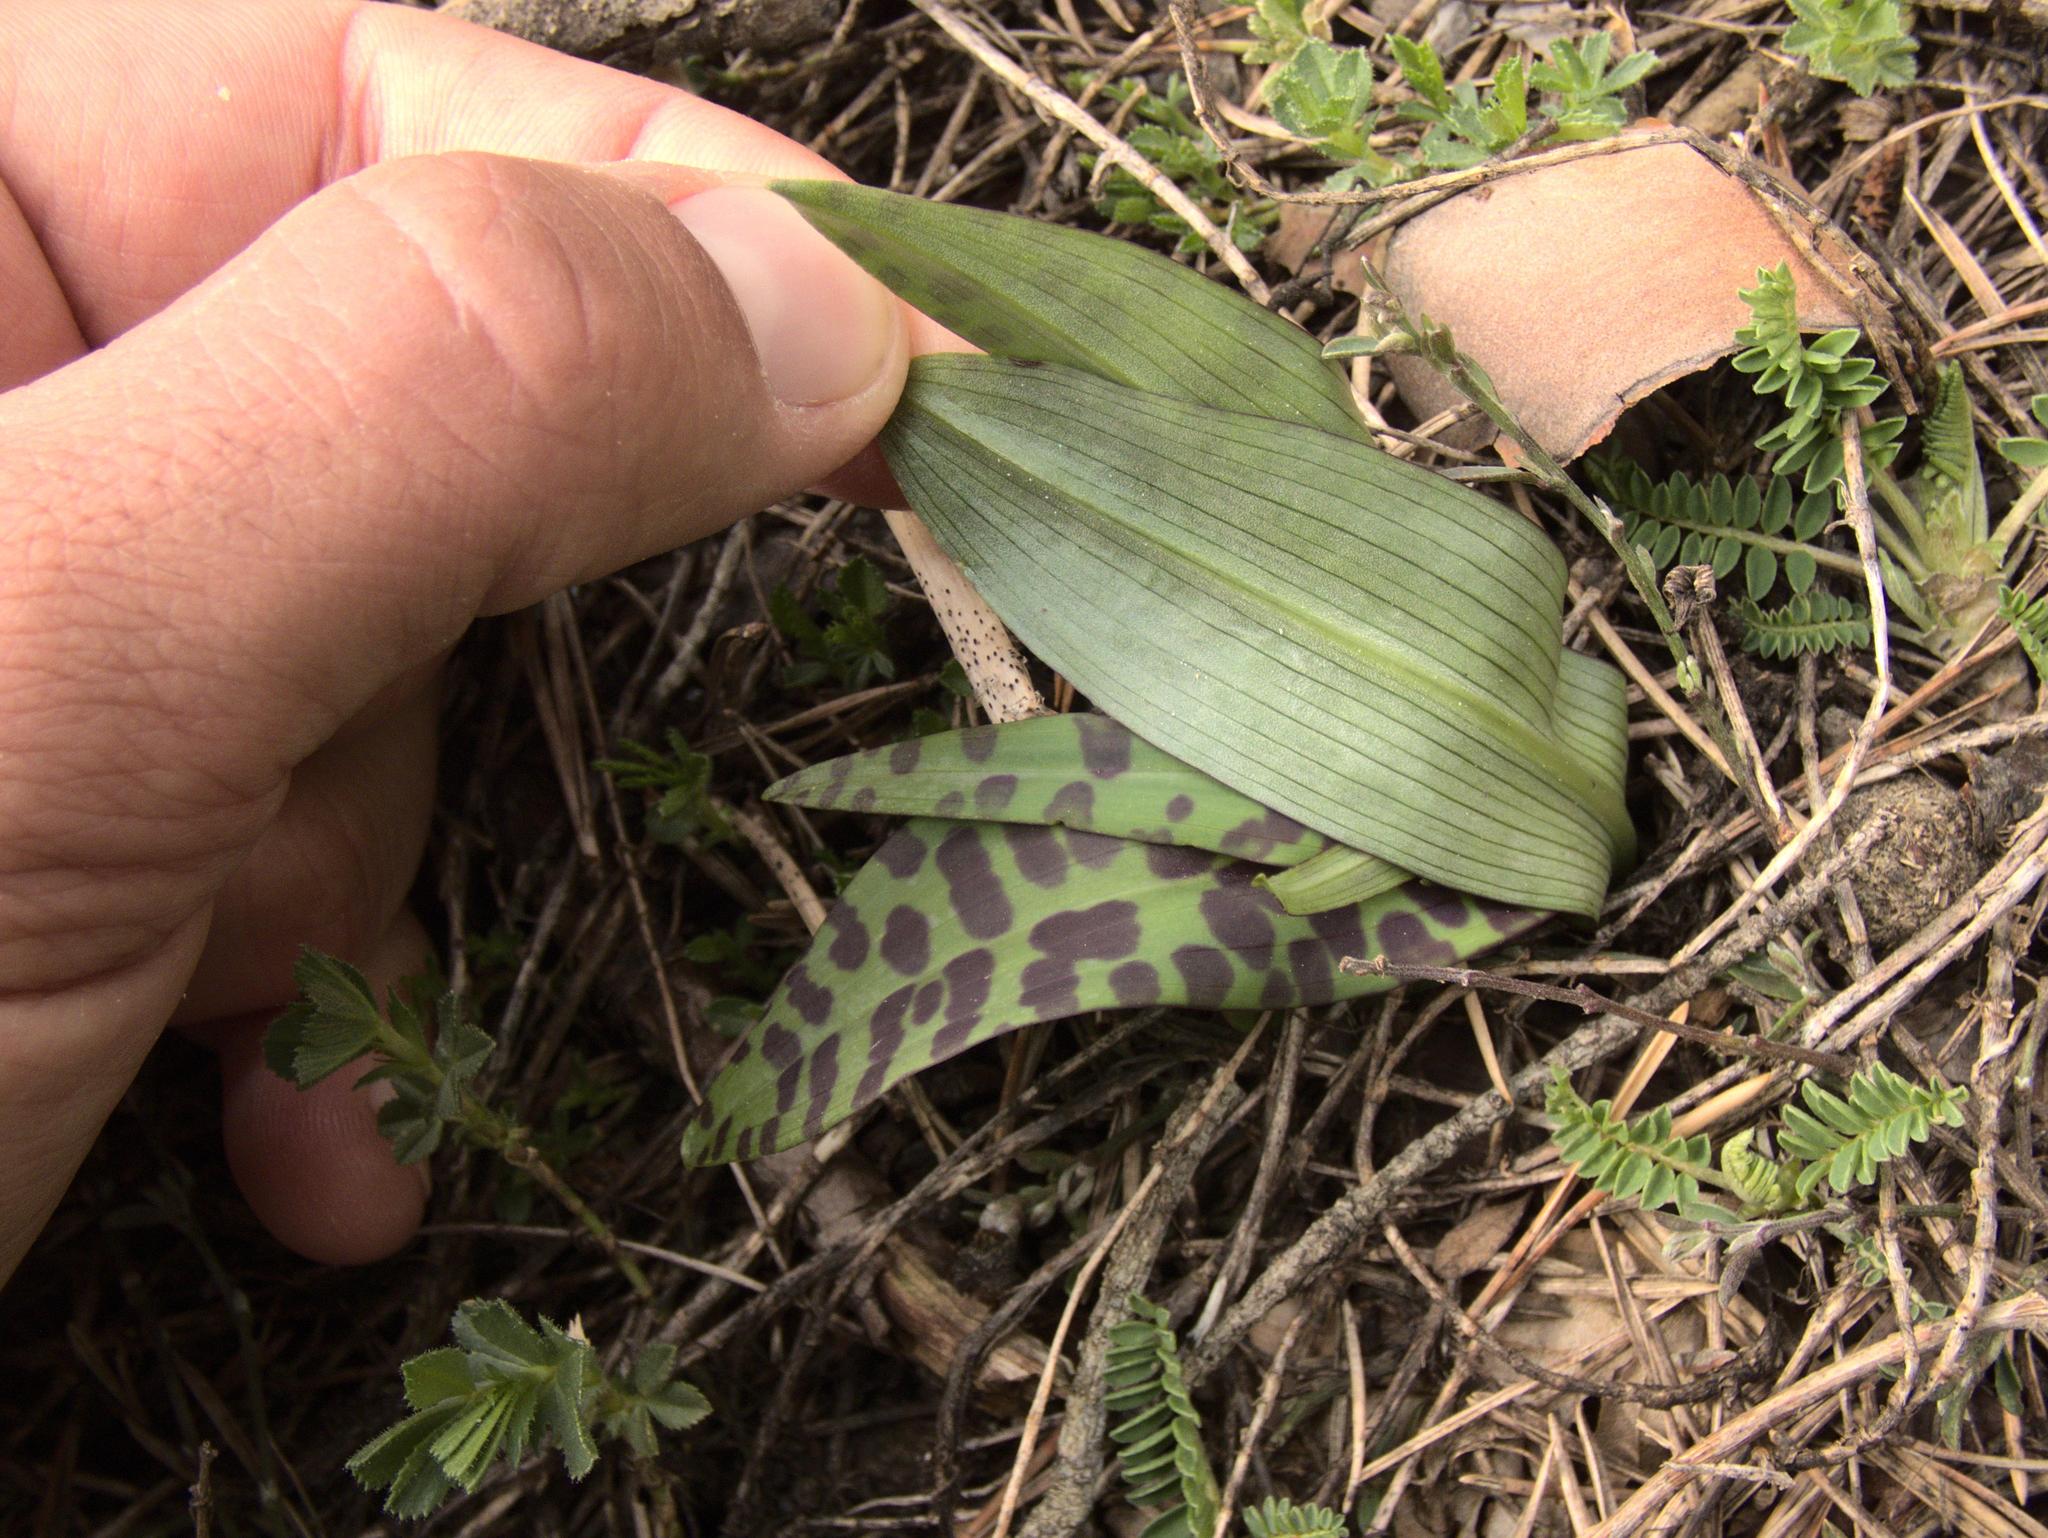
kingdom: Plantae
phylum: Tracheophyta
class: Liliopsida
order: Asparagales
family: Orchidaceae
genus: Dactylorhiza
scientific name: Dactylorhiza maculata
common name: Heath spotted-orchid
